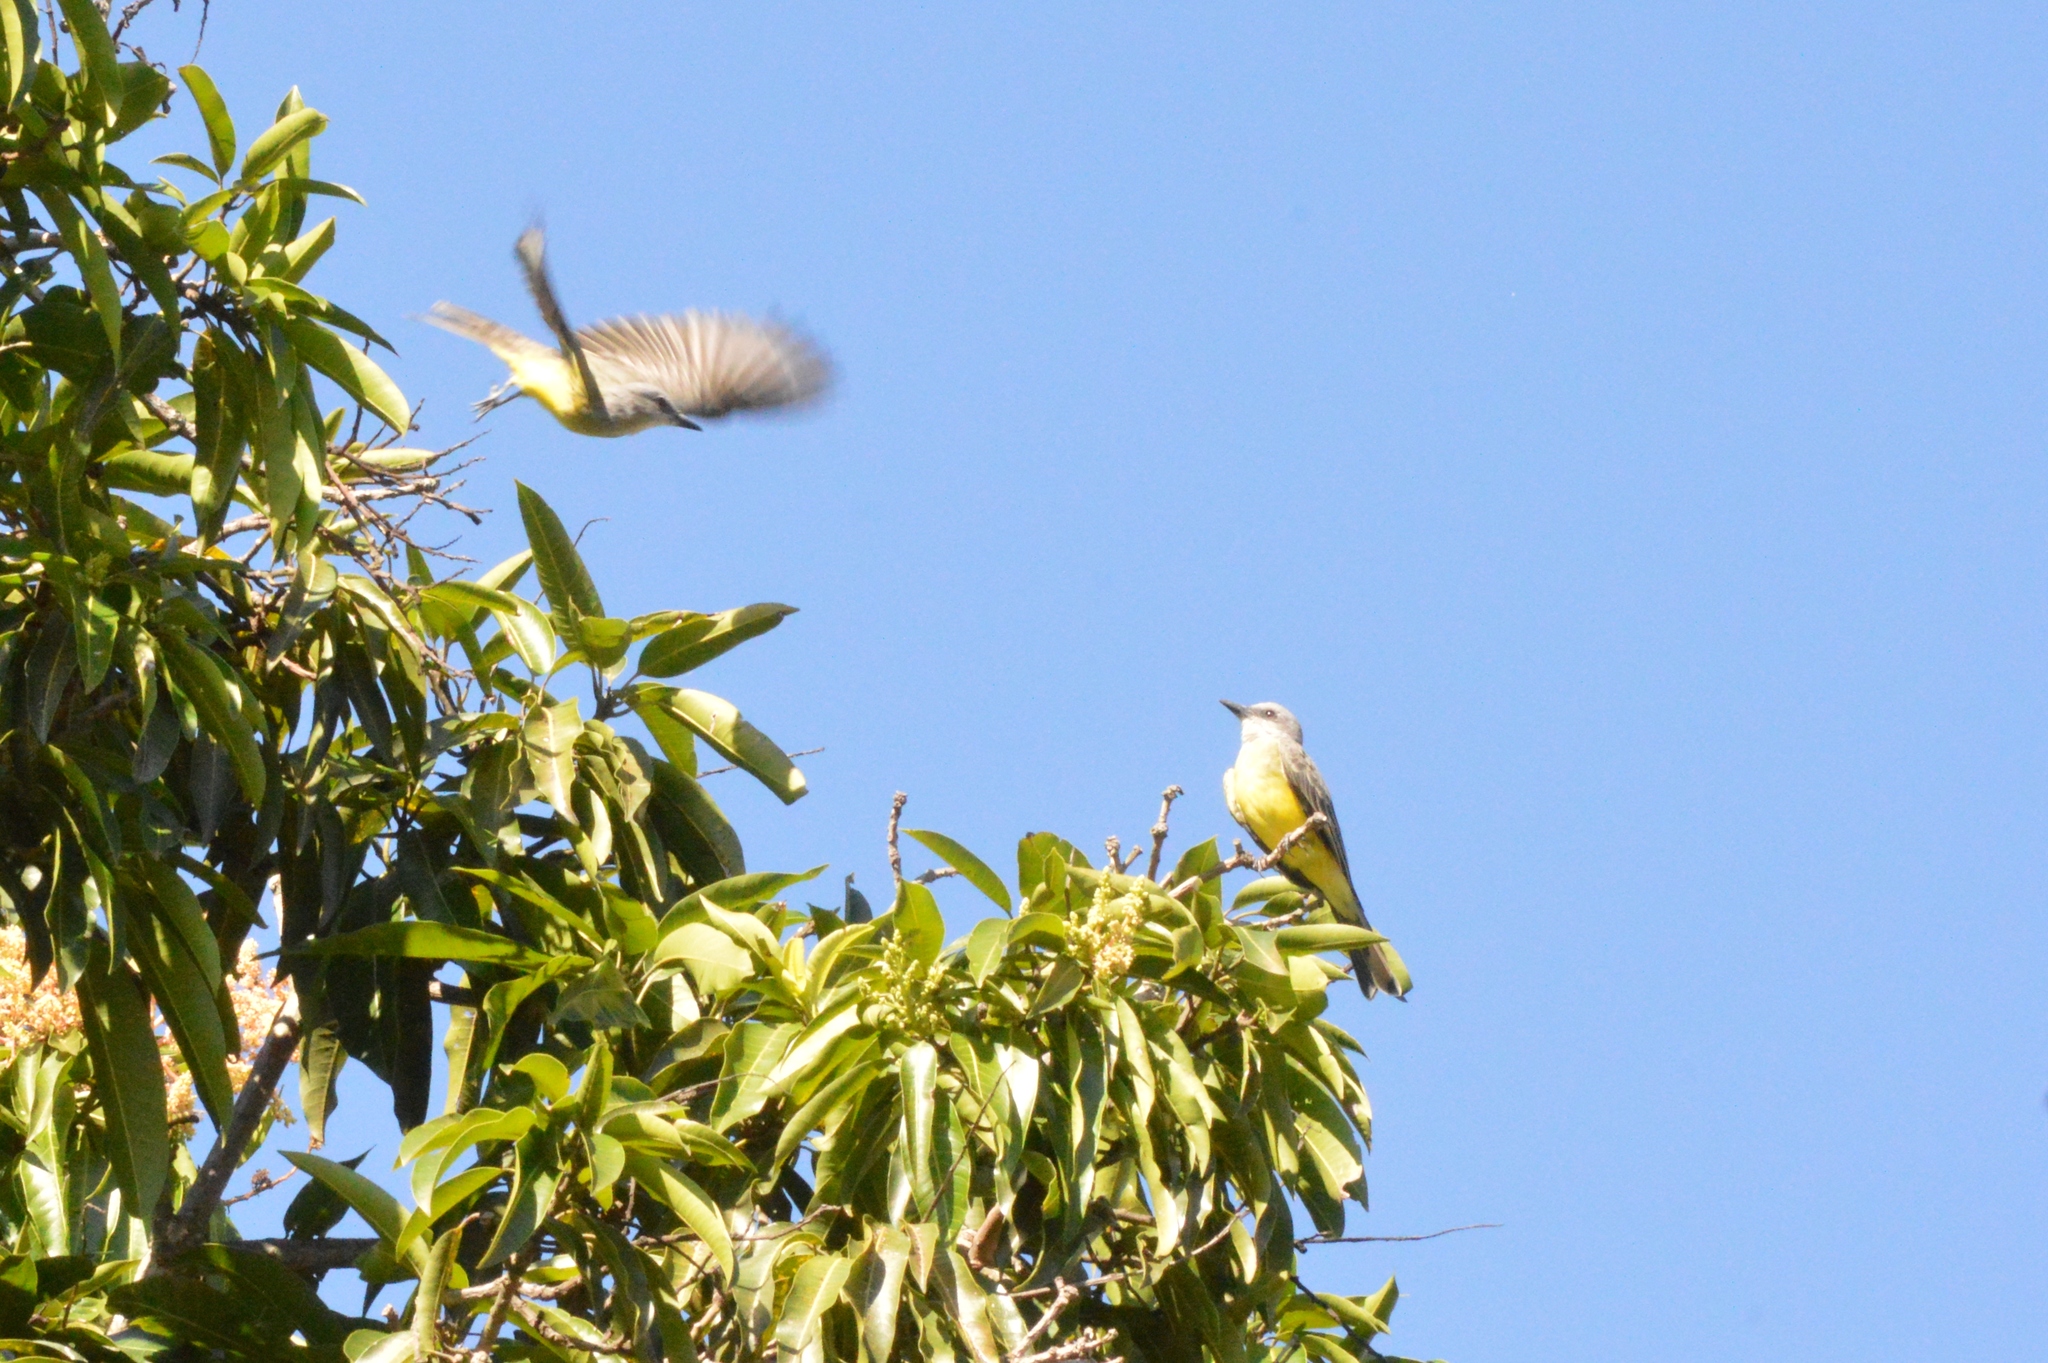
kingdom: Animalia
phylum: Chordata
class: Aves
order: Passeriformes
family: Tyrannidae
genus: Tyrannus
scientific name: Tyrannus melancholicus
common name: Tropical kingbird
